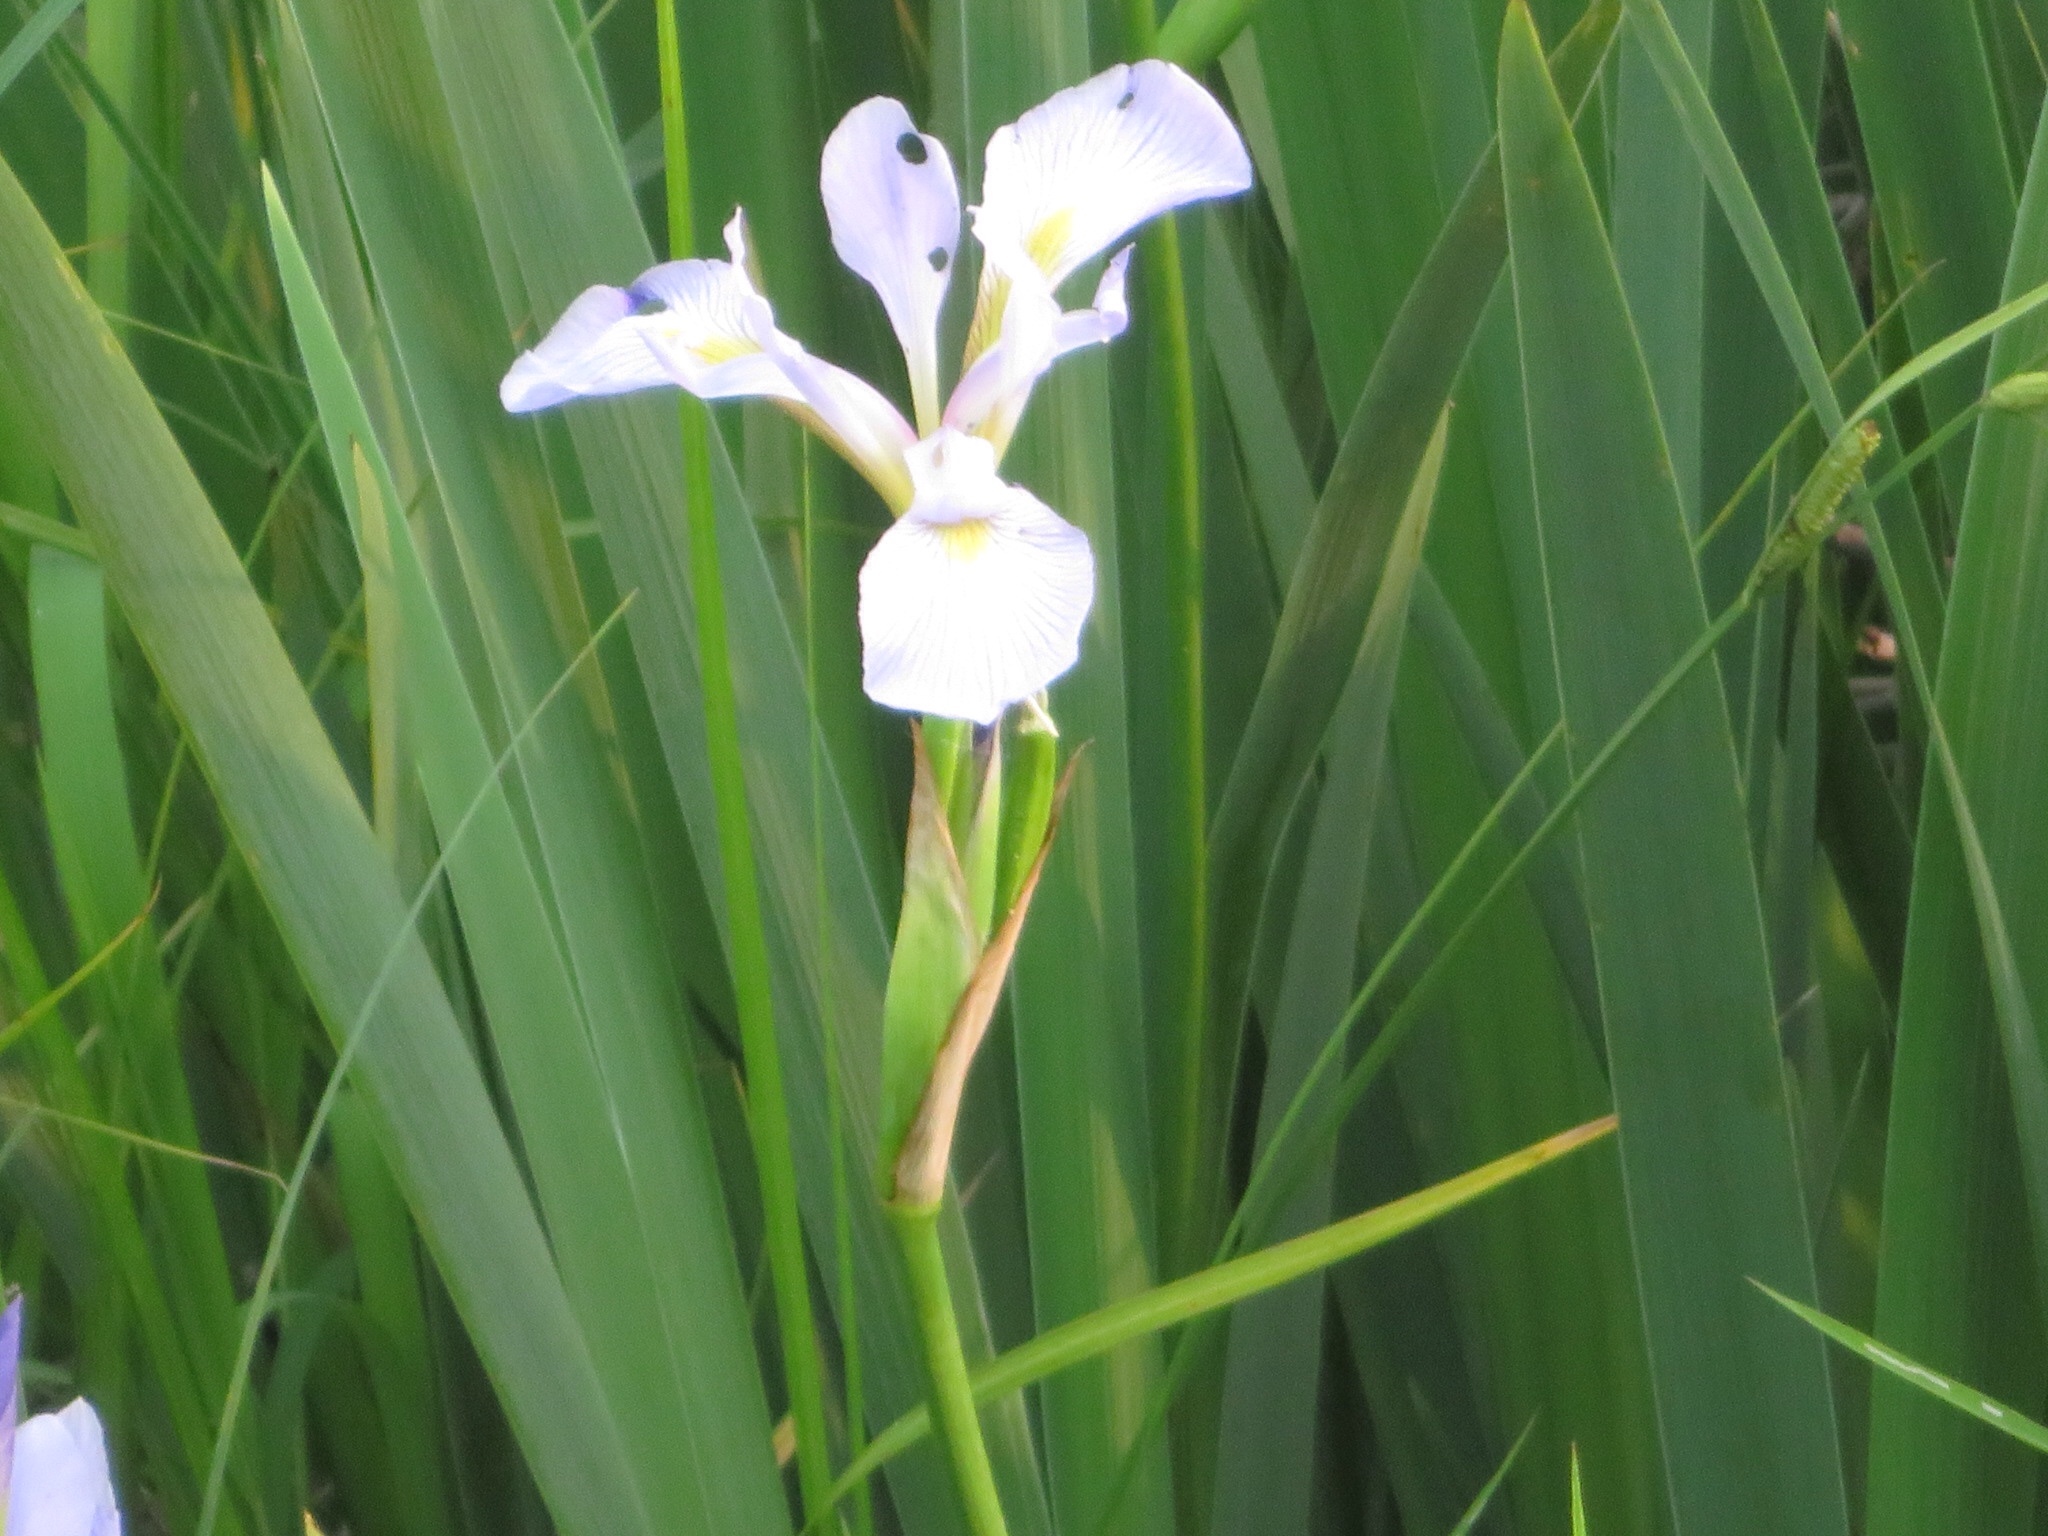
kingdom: Plantae
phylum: Tracheophyta
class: Liliopsida
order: Asparagales
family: Iridaceae
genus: Iris
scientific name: Iris virginica
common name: Southern blue flag
